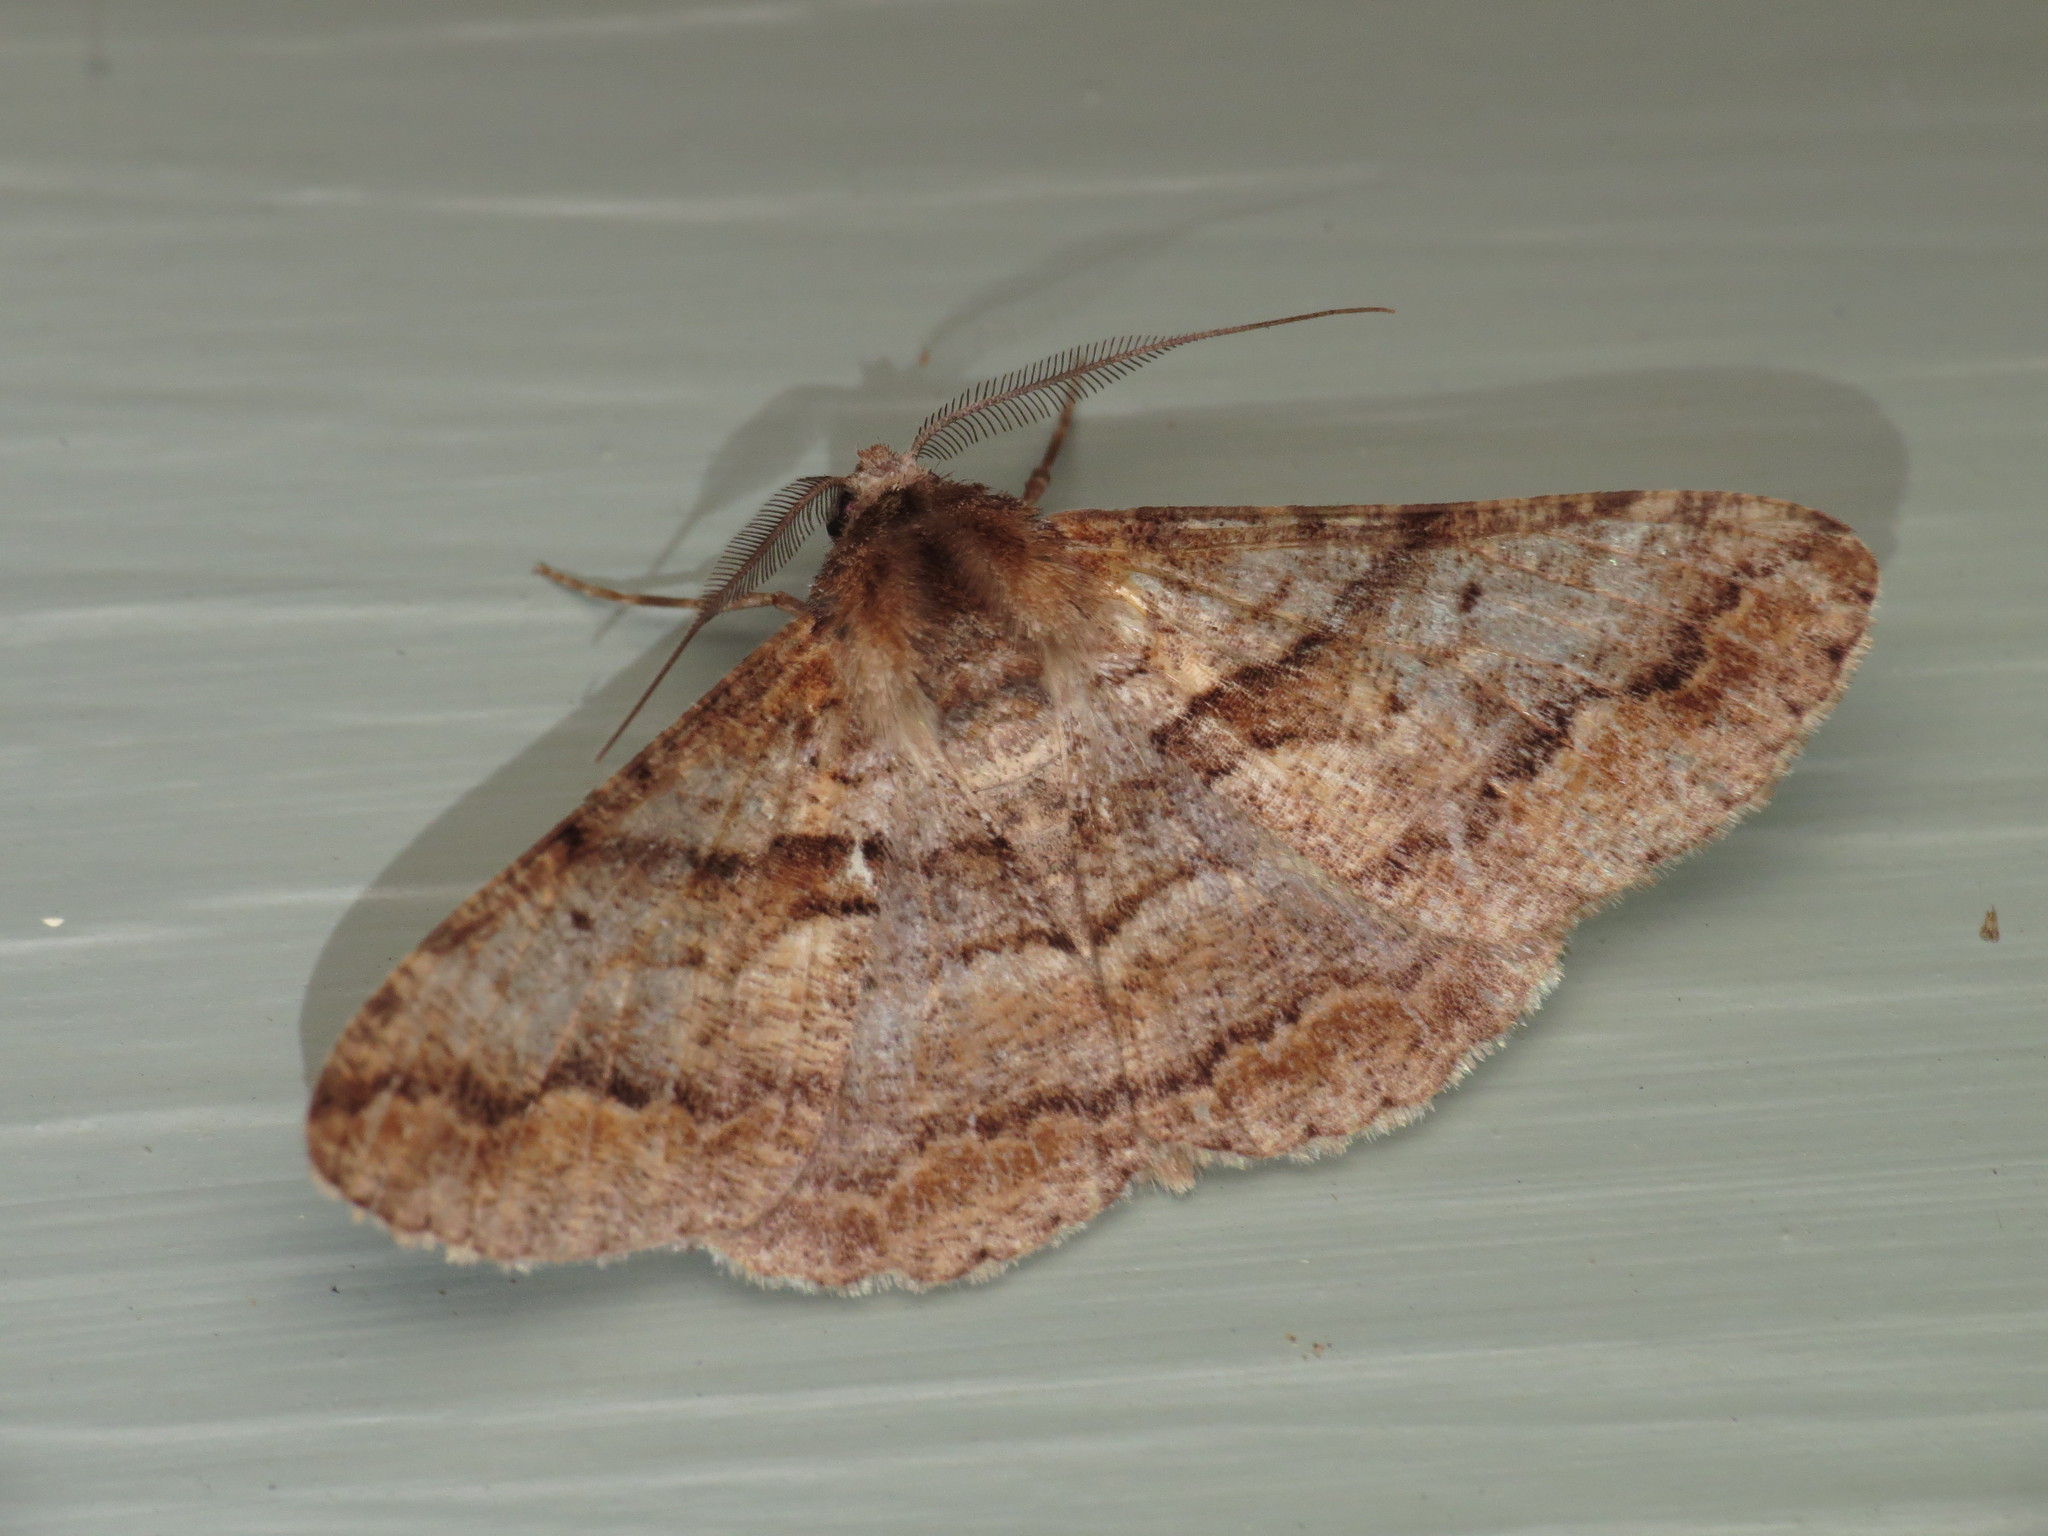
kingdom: Animalia
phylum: Arthropoda
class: Insecta
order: Lepidoptera
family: Geometridae
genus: Gastrinodes
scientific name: Gastrinodes bitaeniaria
